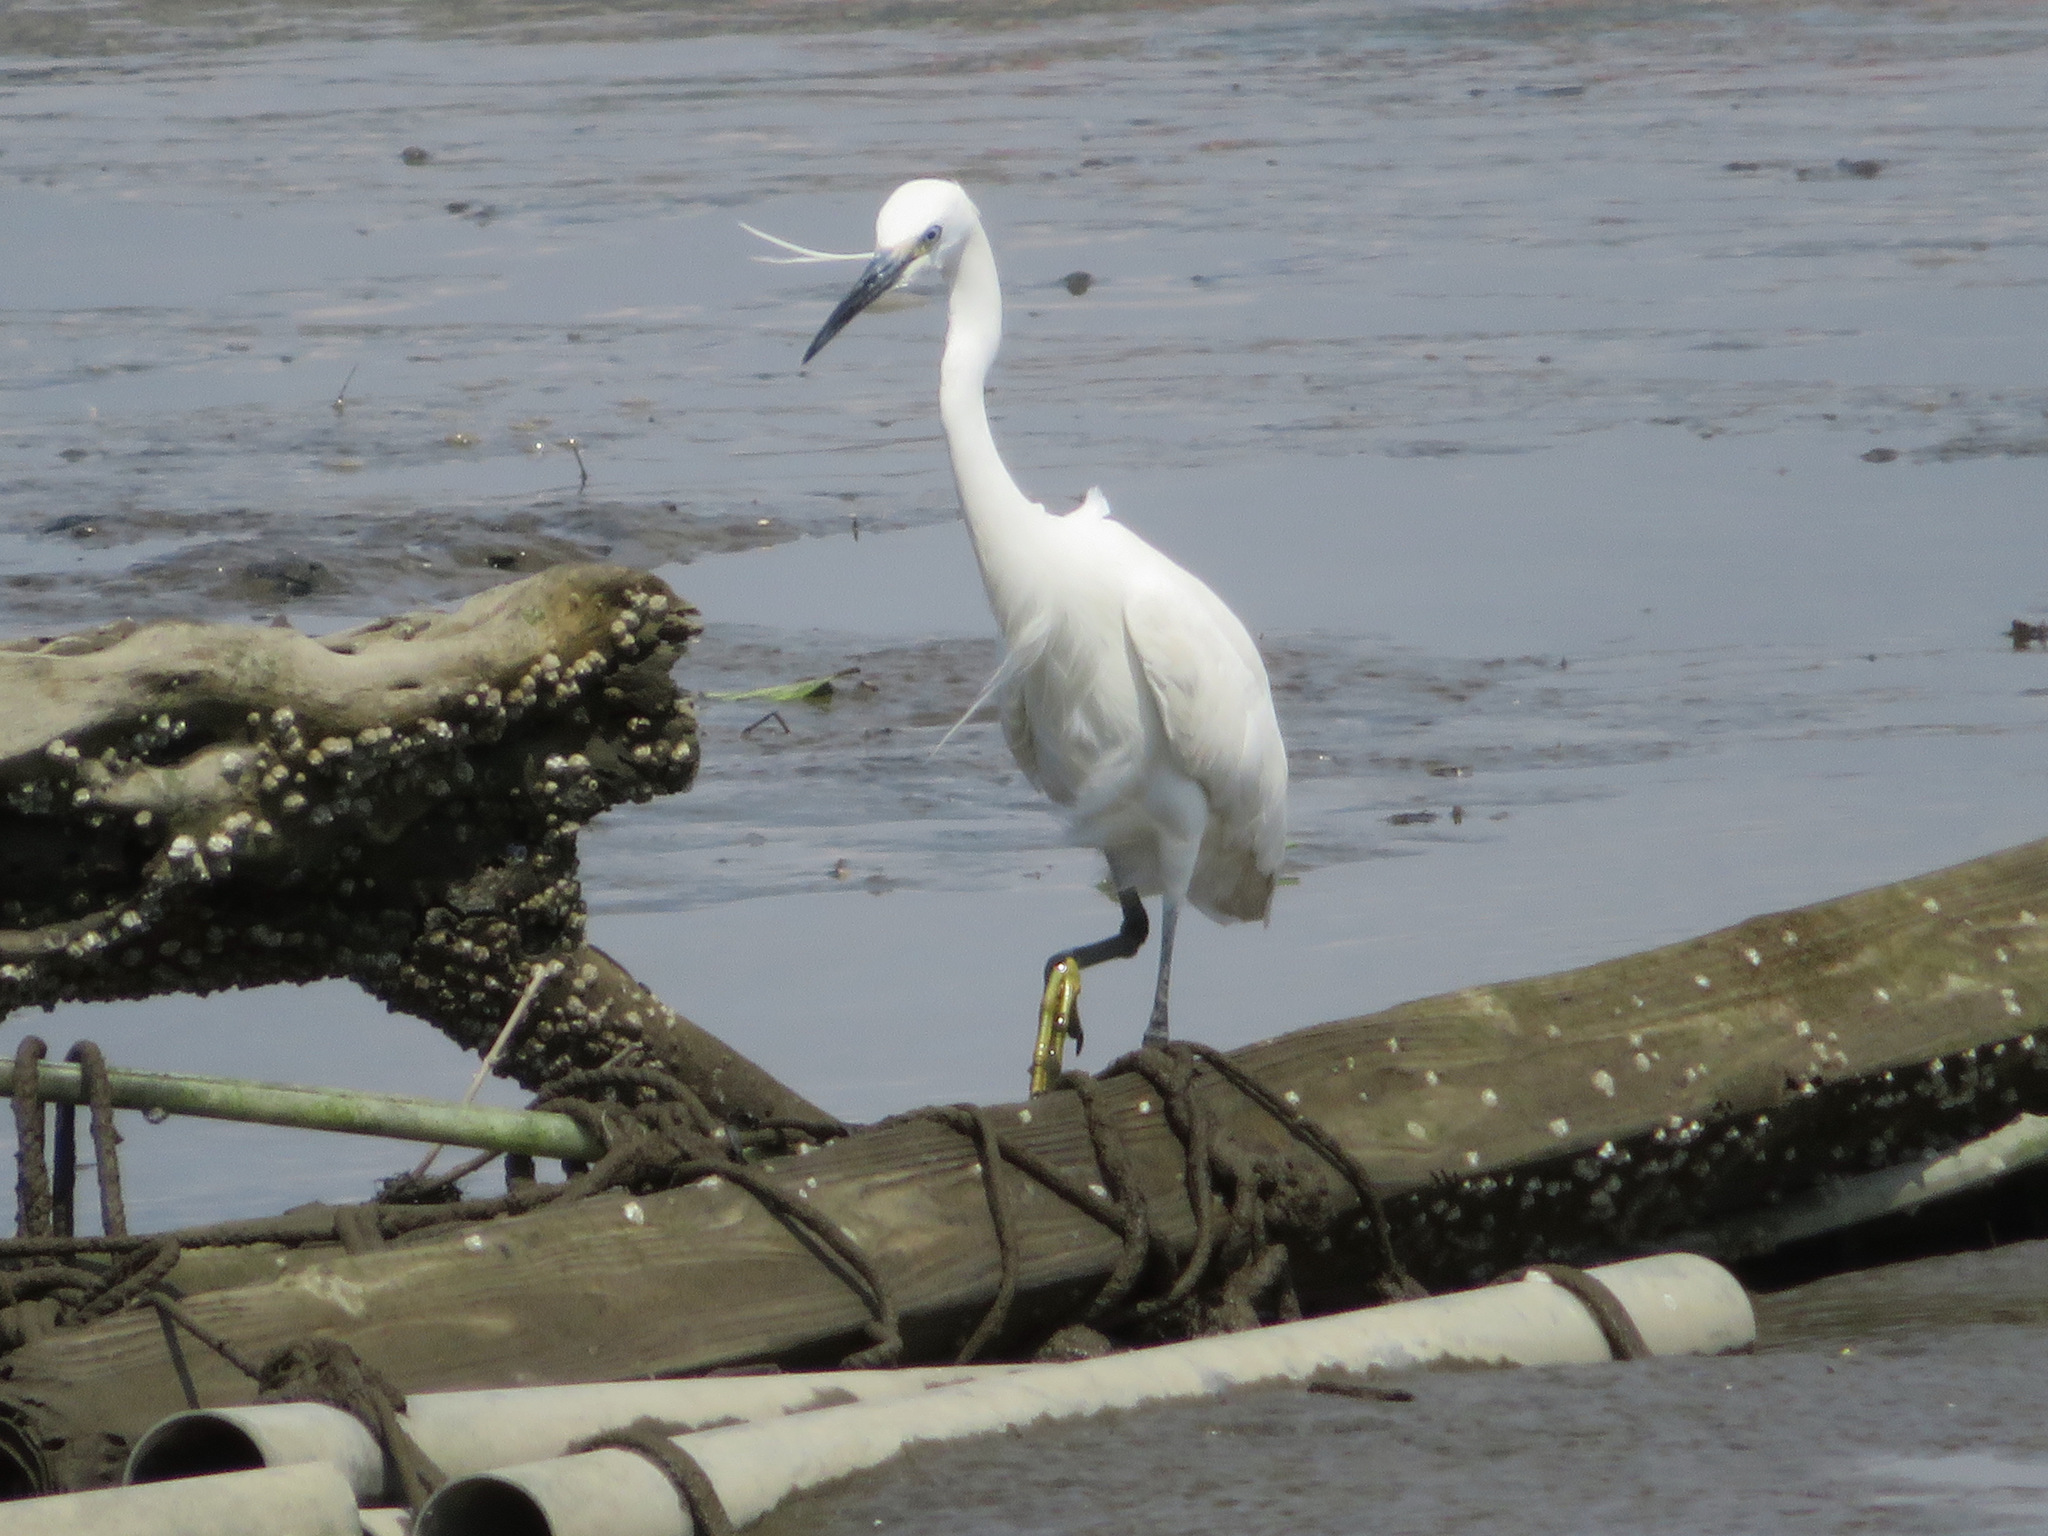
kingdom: Animalia
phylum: Chordata
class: Aves
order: Pelecaniformes
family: Ardeidae
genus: Egretta
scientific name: Egretta garzetta
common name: Little egret
